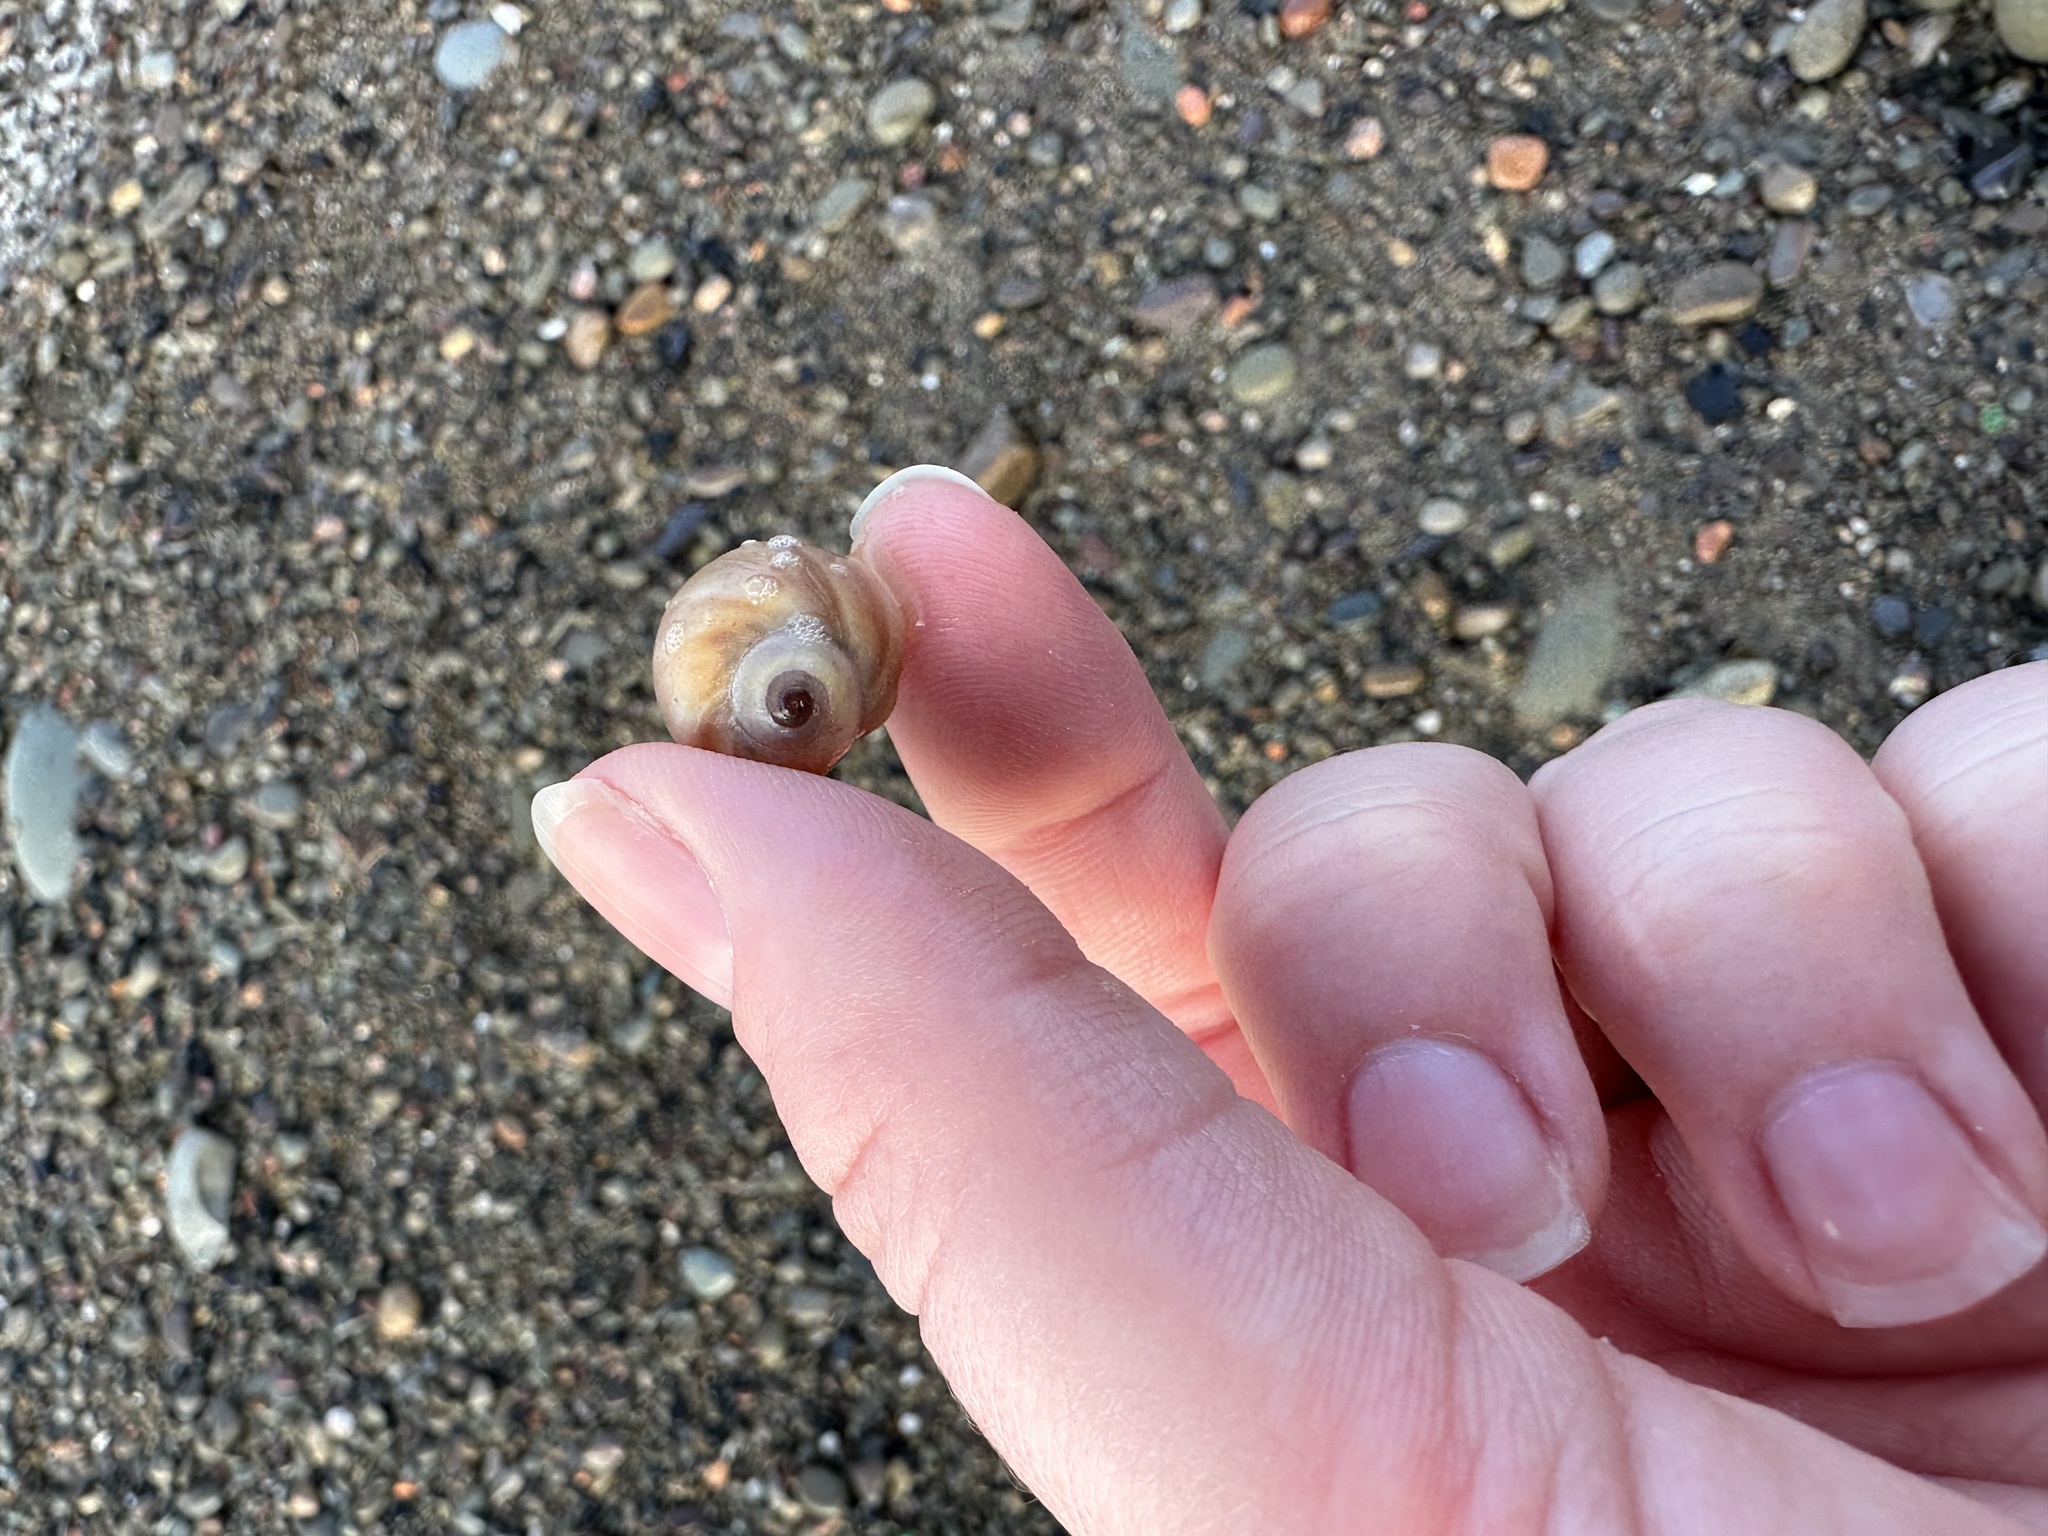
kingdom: Animalia
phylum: Mollusca
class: Gastropoda
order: Littorinimorpha
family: Naticidae
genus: Euspira
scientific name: Euspira heros
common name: Common northern moonsnail
